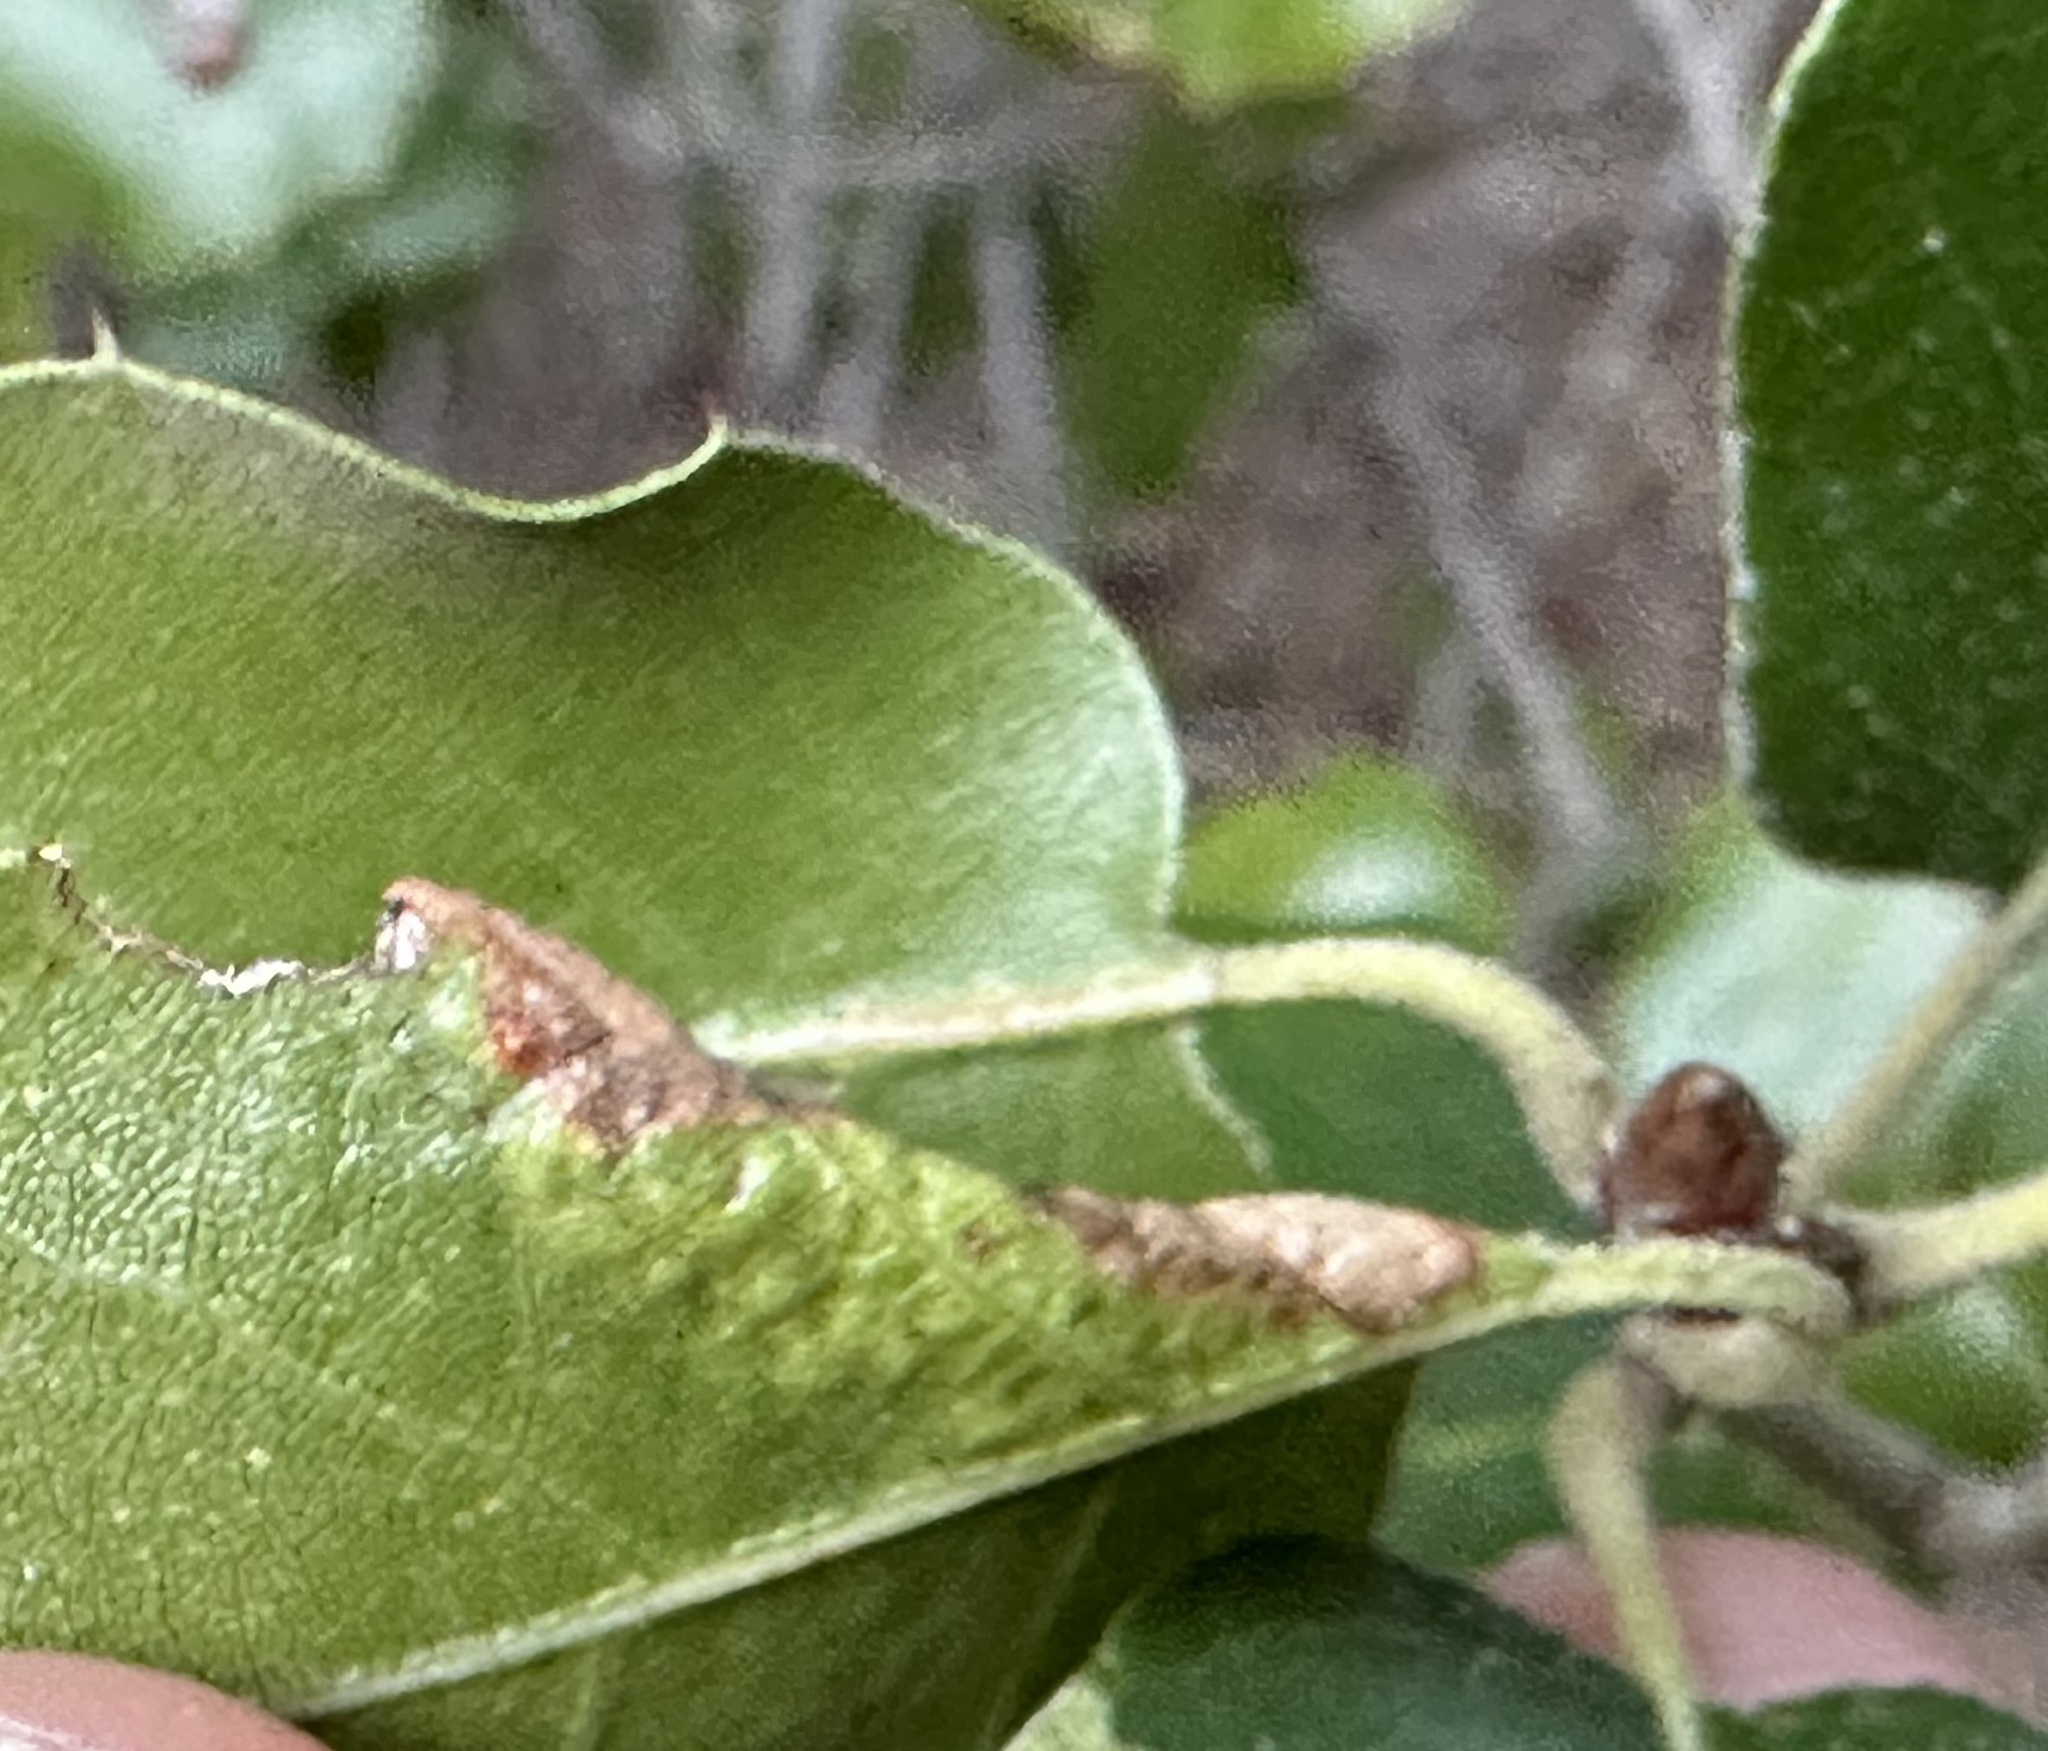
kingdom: Animalia
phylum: Arthropoda
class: Insecta
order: Hemiptera
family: Aphididae
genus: Stegophylla
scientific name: Stegophylla essigi
